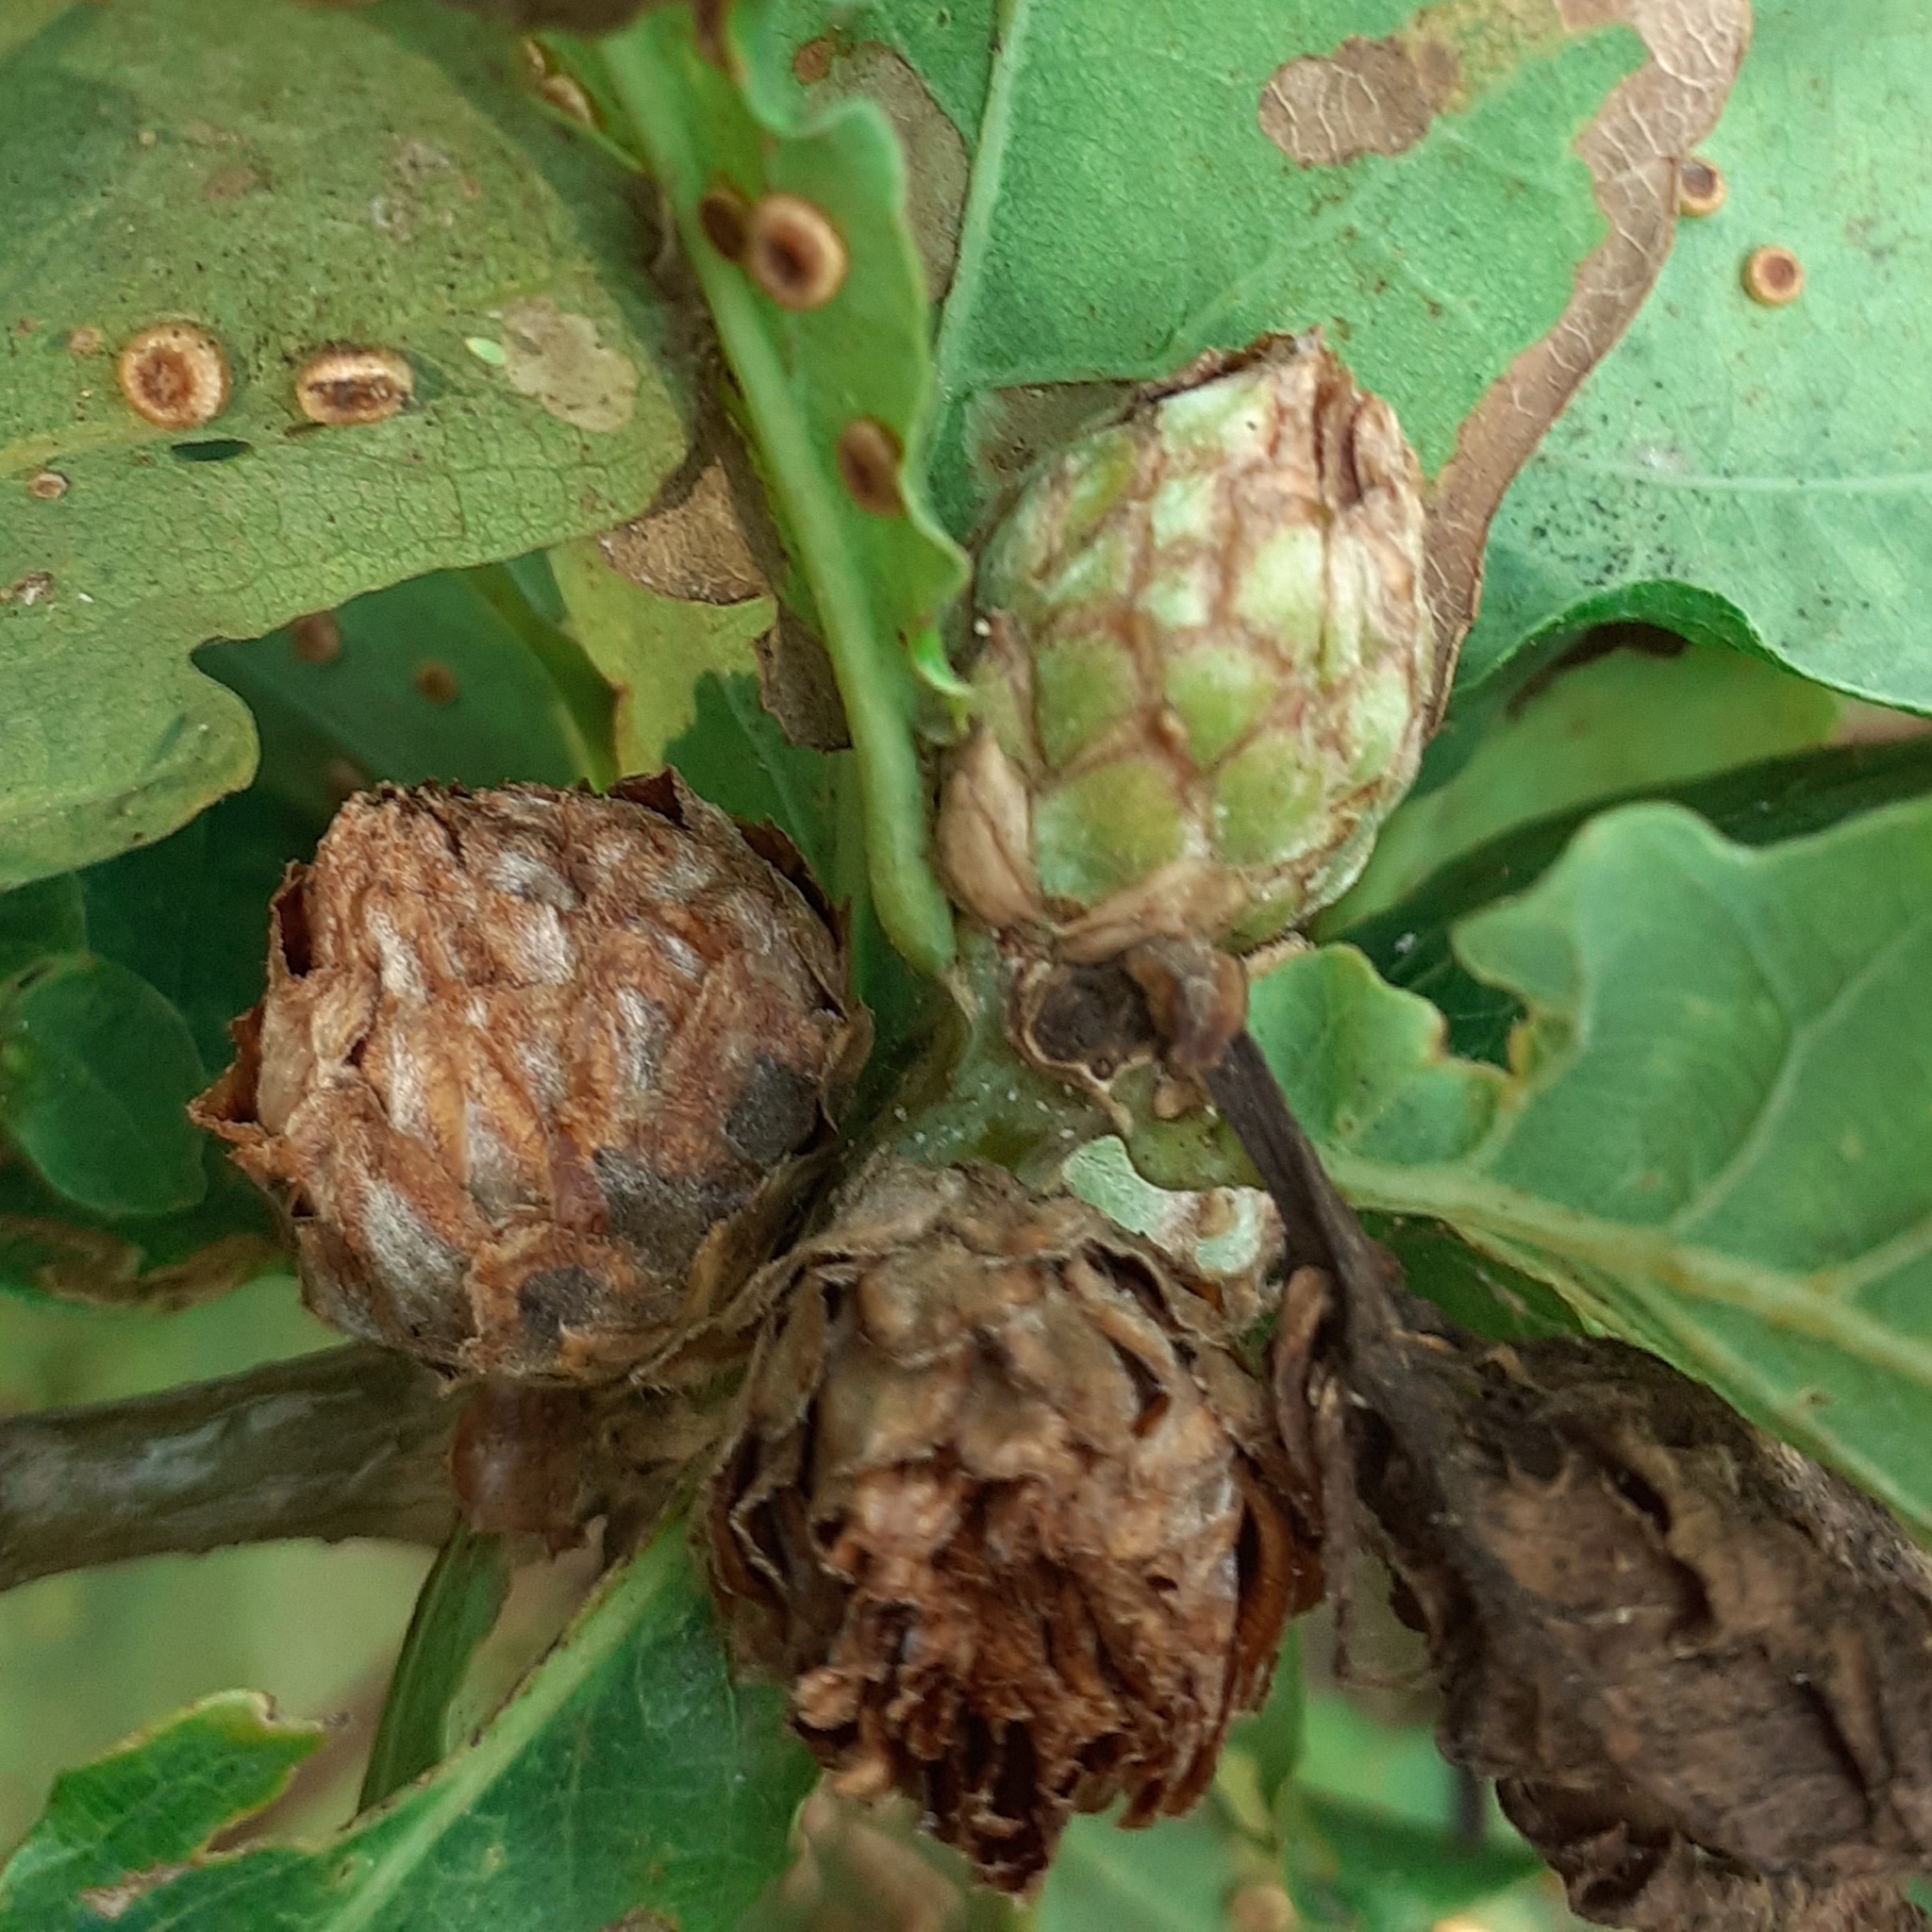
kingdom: Animalia
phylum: Arthropoda
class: Insecta
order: Hymenoptera
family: Cynipidae
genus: Andricus
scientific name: Andricus foecundatrix
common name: Artichoke gall
